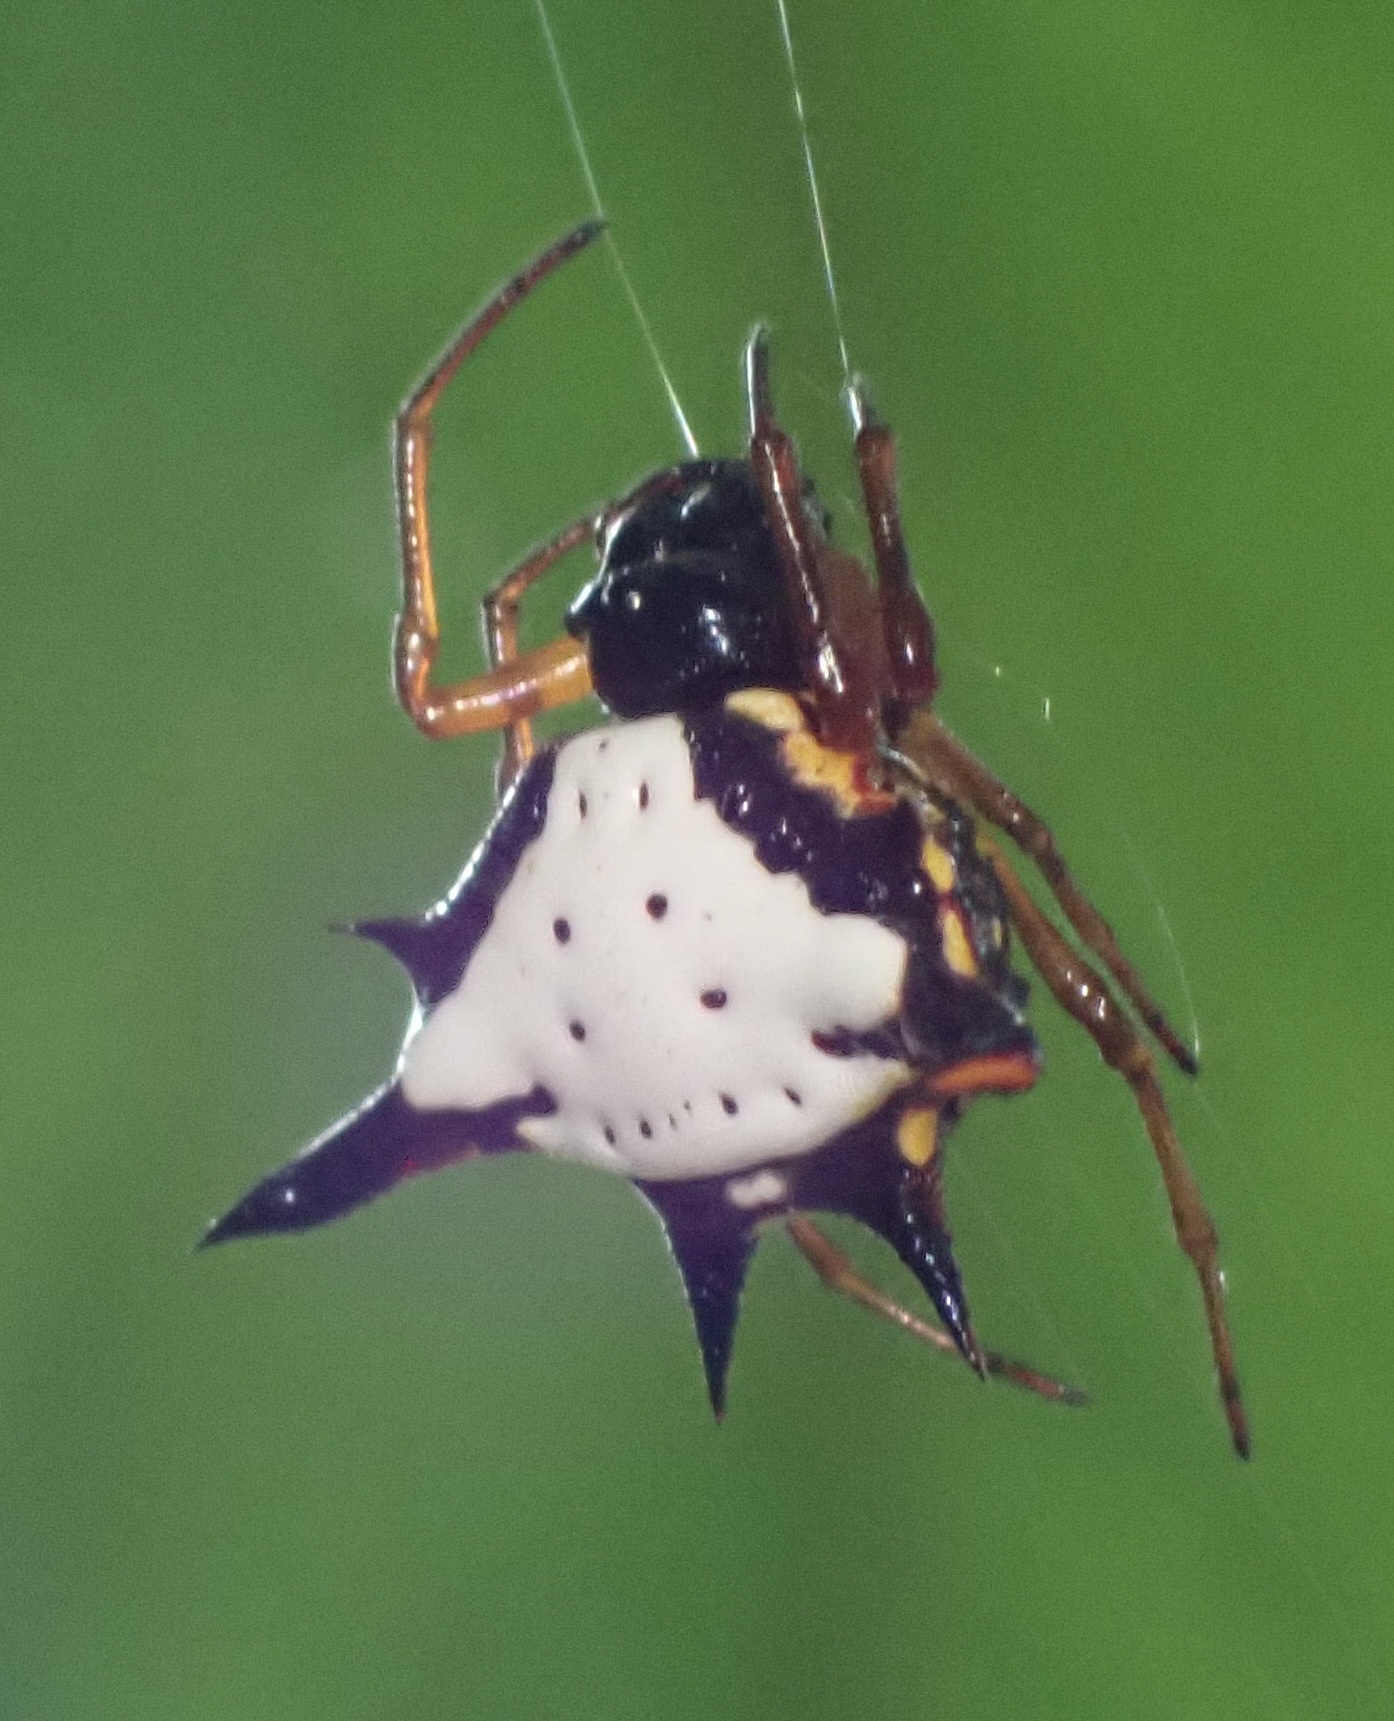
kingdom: Animalia
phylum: Arthropoda
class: Arachnida
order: Araneae
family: Araneidae
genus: Gasteracantha
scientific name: Gasteracantha crucigera
